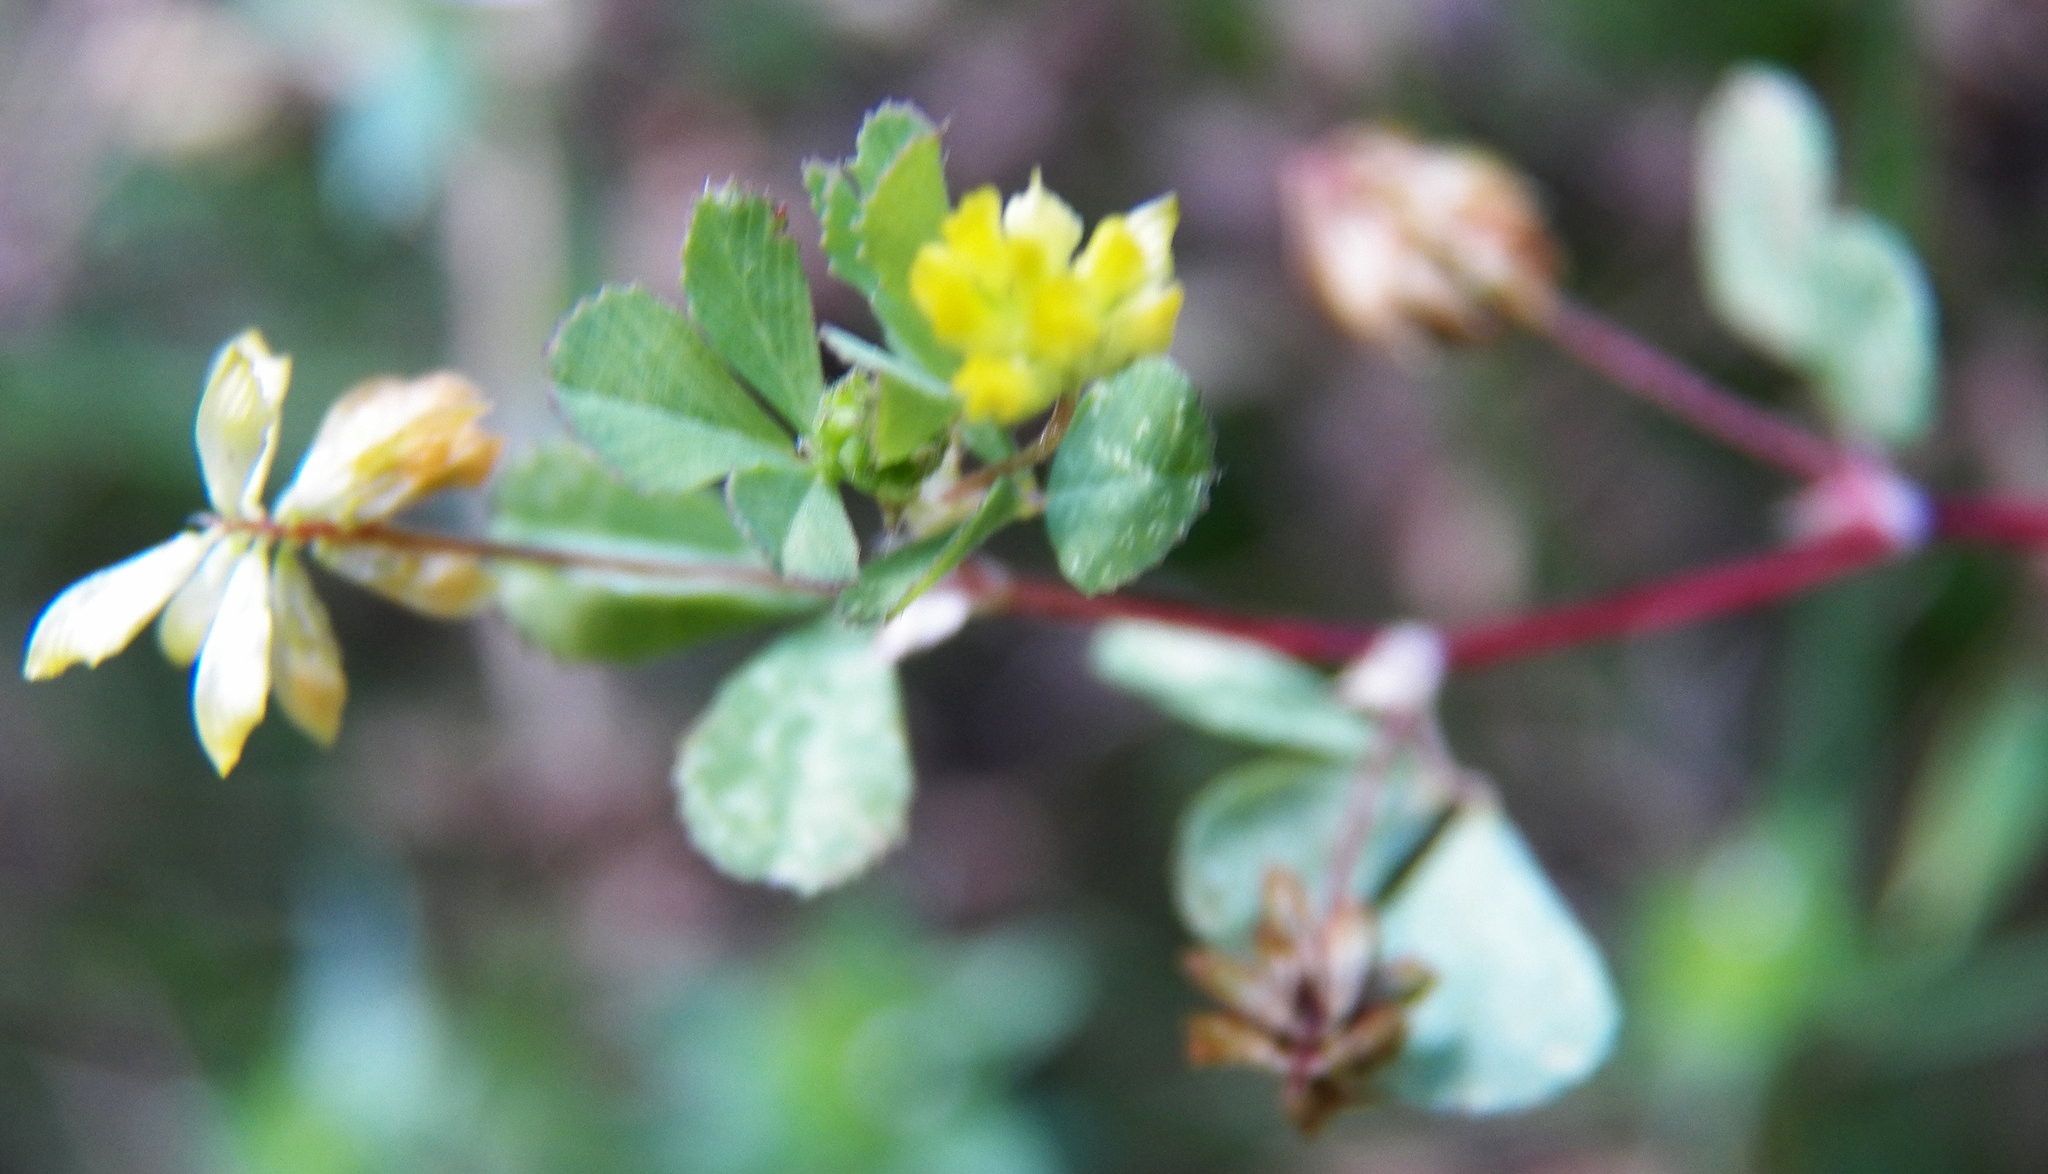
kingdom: Plantae
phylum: Tracheophyta
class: Magnoliopsida
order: Fabales
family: Fabaceae
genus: Trifolium
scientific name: Trifolium dubium
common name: Suckling clover
